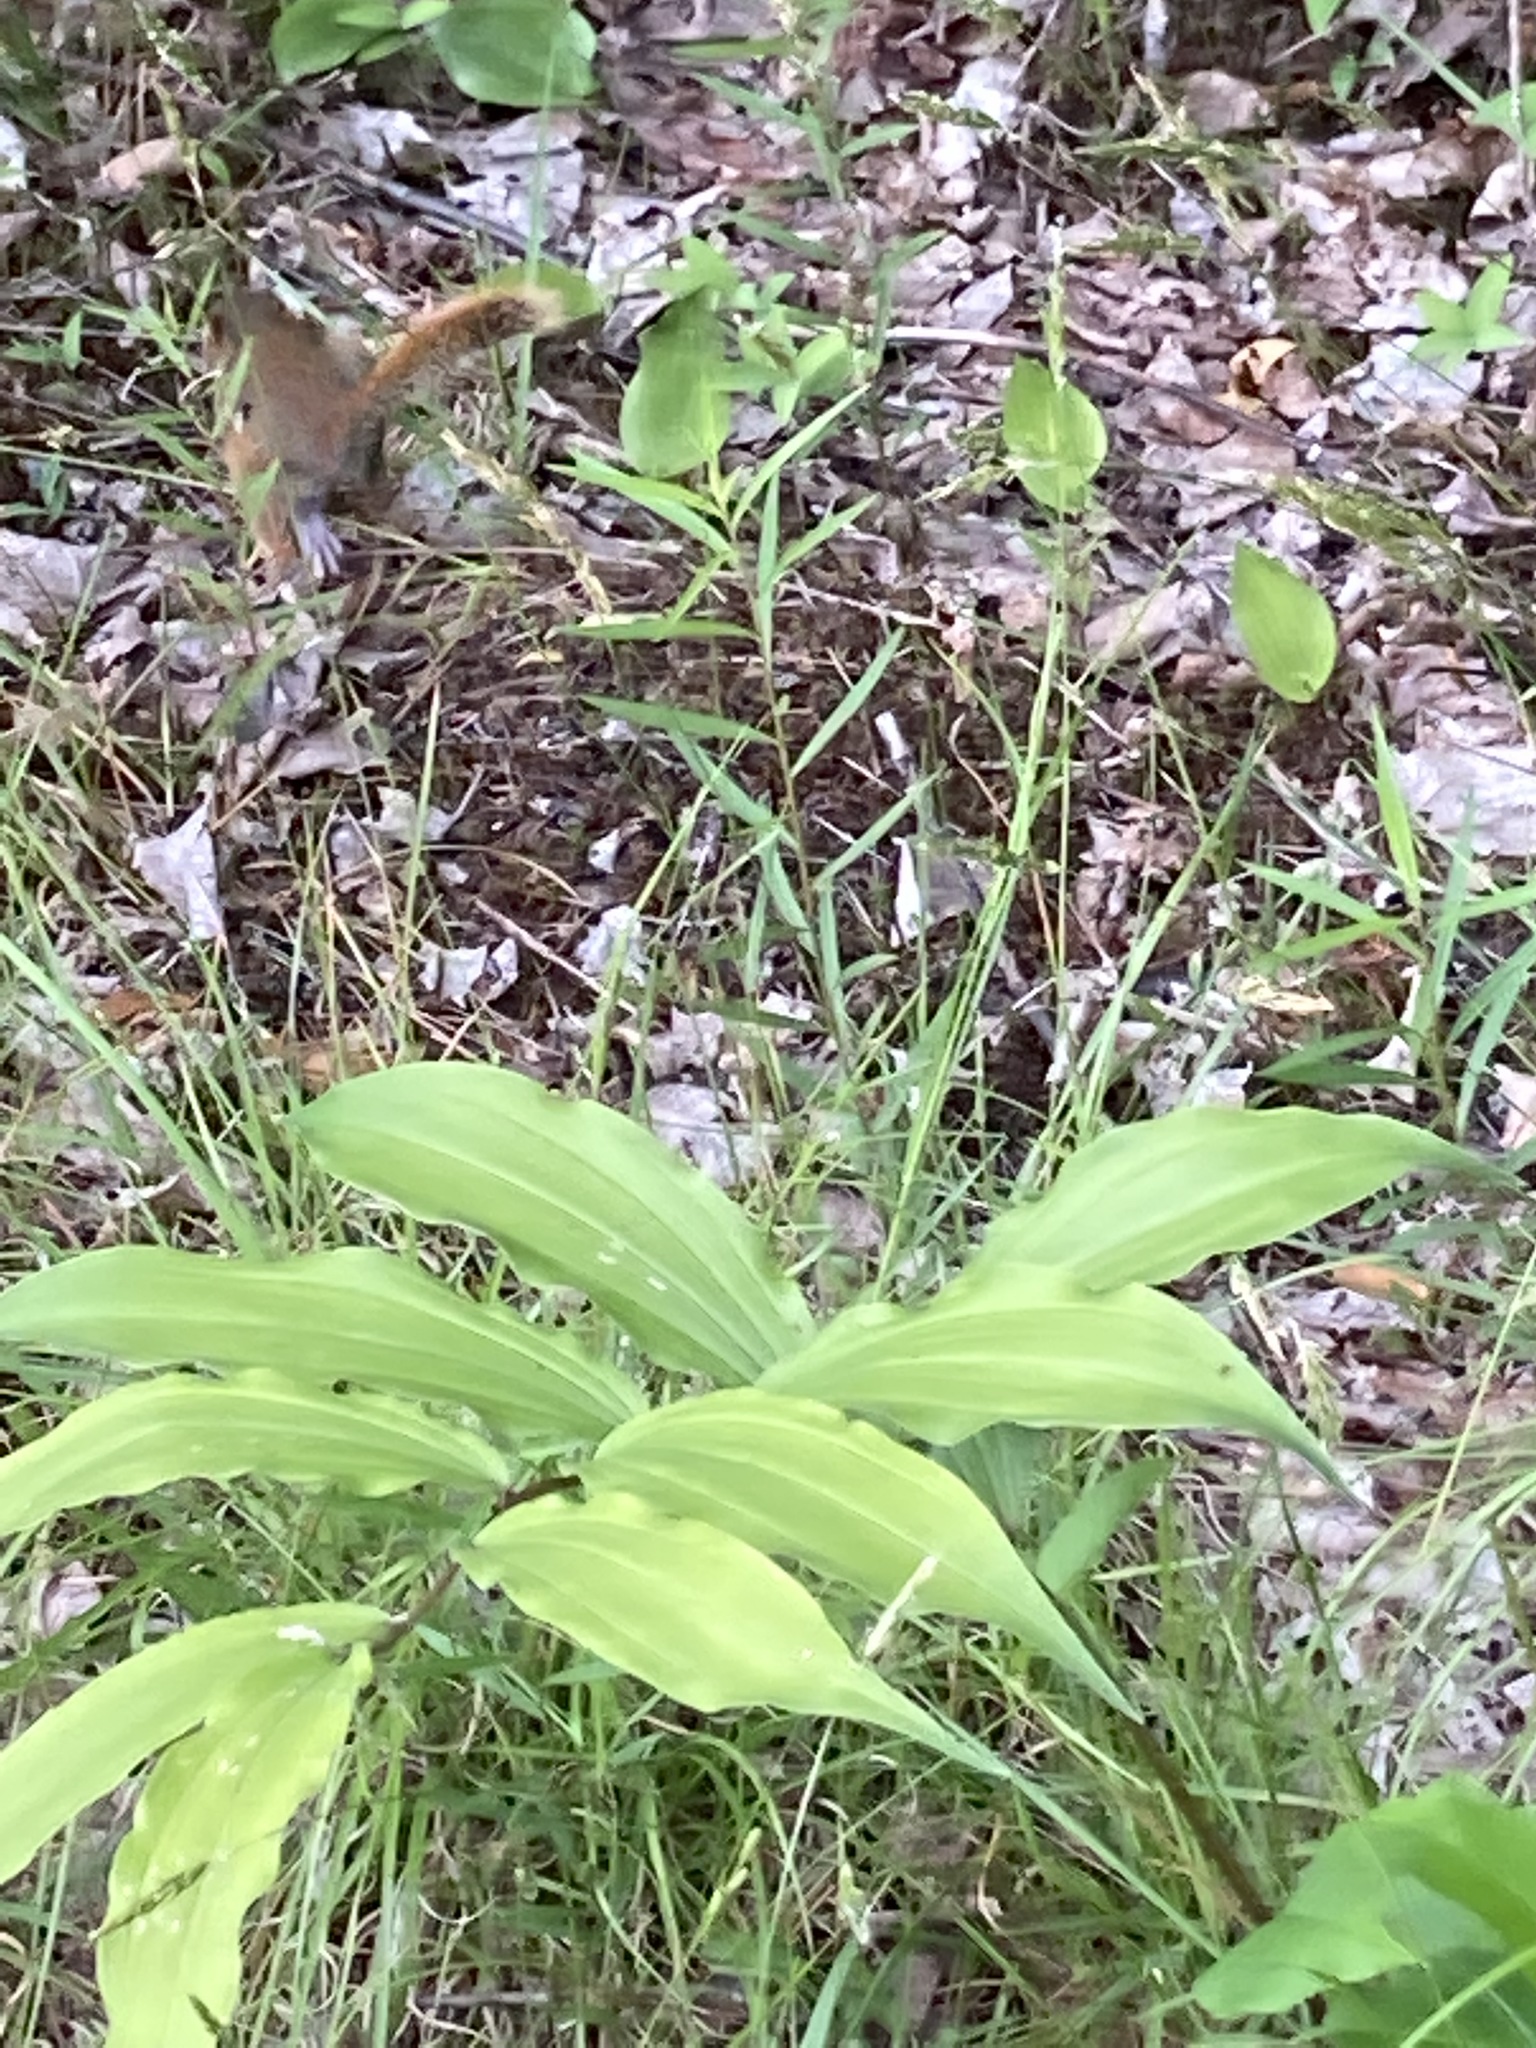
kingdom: Animalia
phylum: Chordata
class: Mammalia
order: Rodentia
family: Sciuridae
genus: Tamiasciurus
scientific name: Tamiasciurus hudsonicus
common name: Red squirrel
